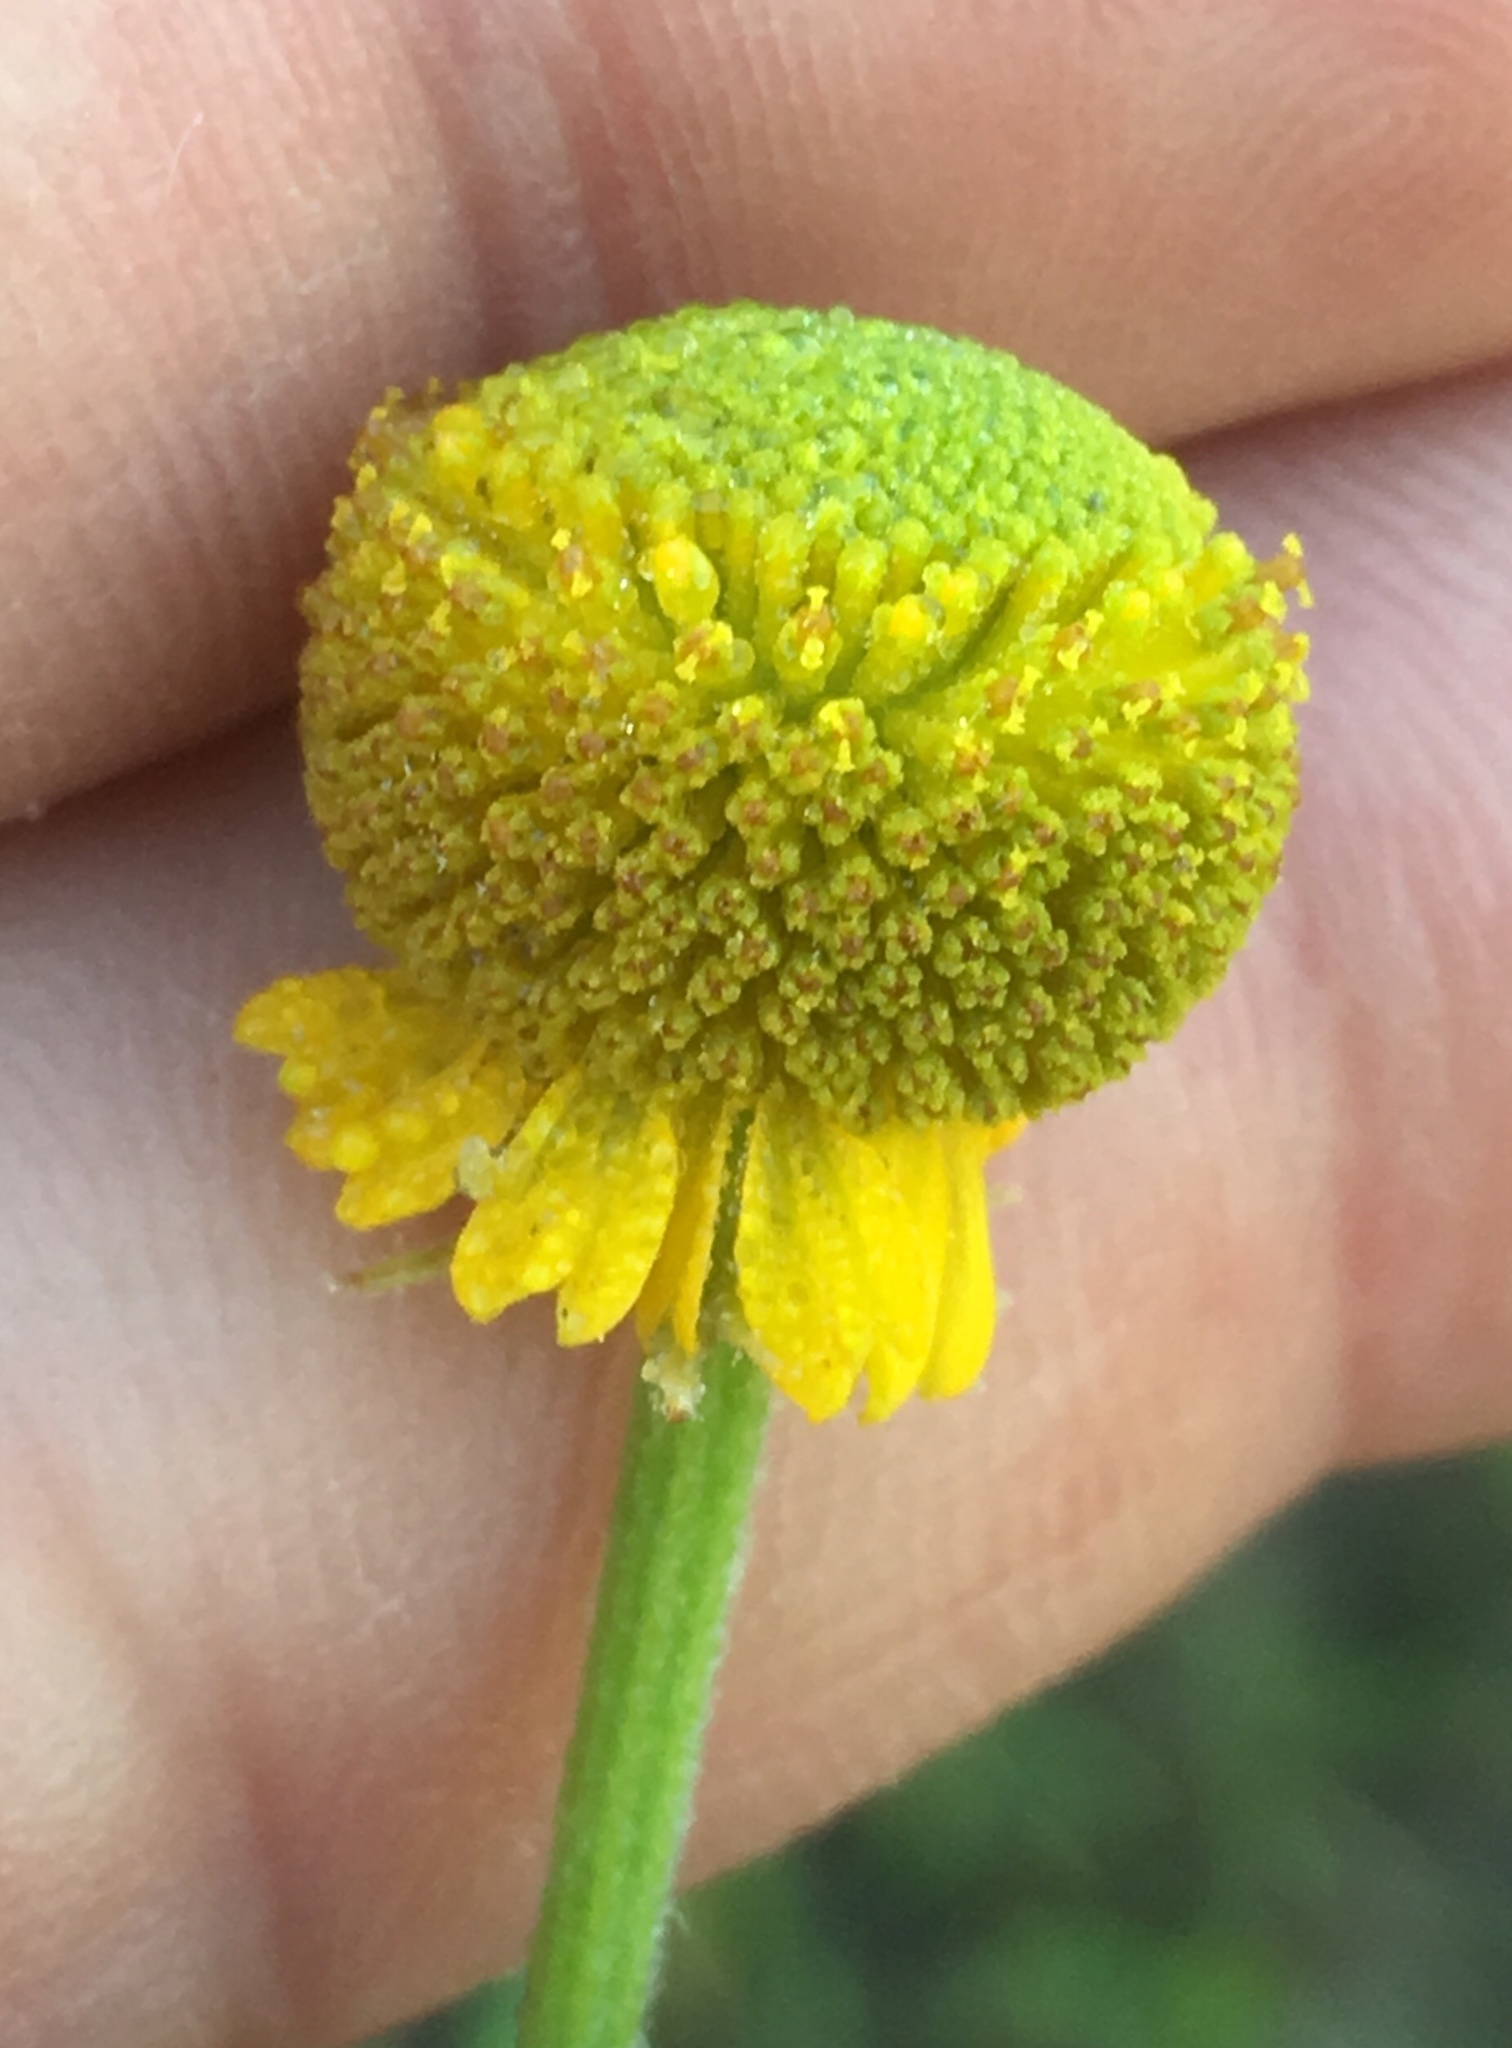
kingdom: Plantae
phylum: Tracheophyta
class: Magnoliopsida
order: Asterales
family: Asteraceae
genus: Helenium
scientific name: Helenium puberulum
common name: Sneezewort
